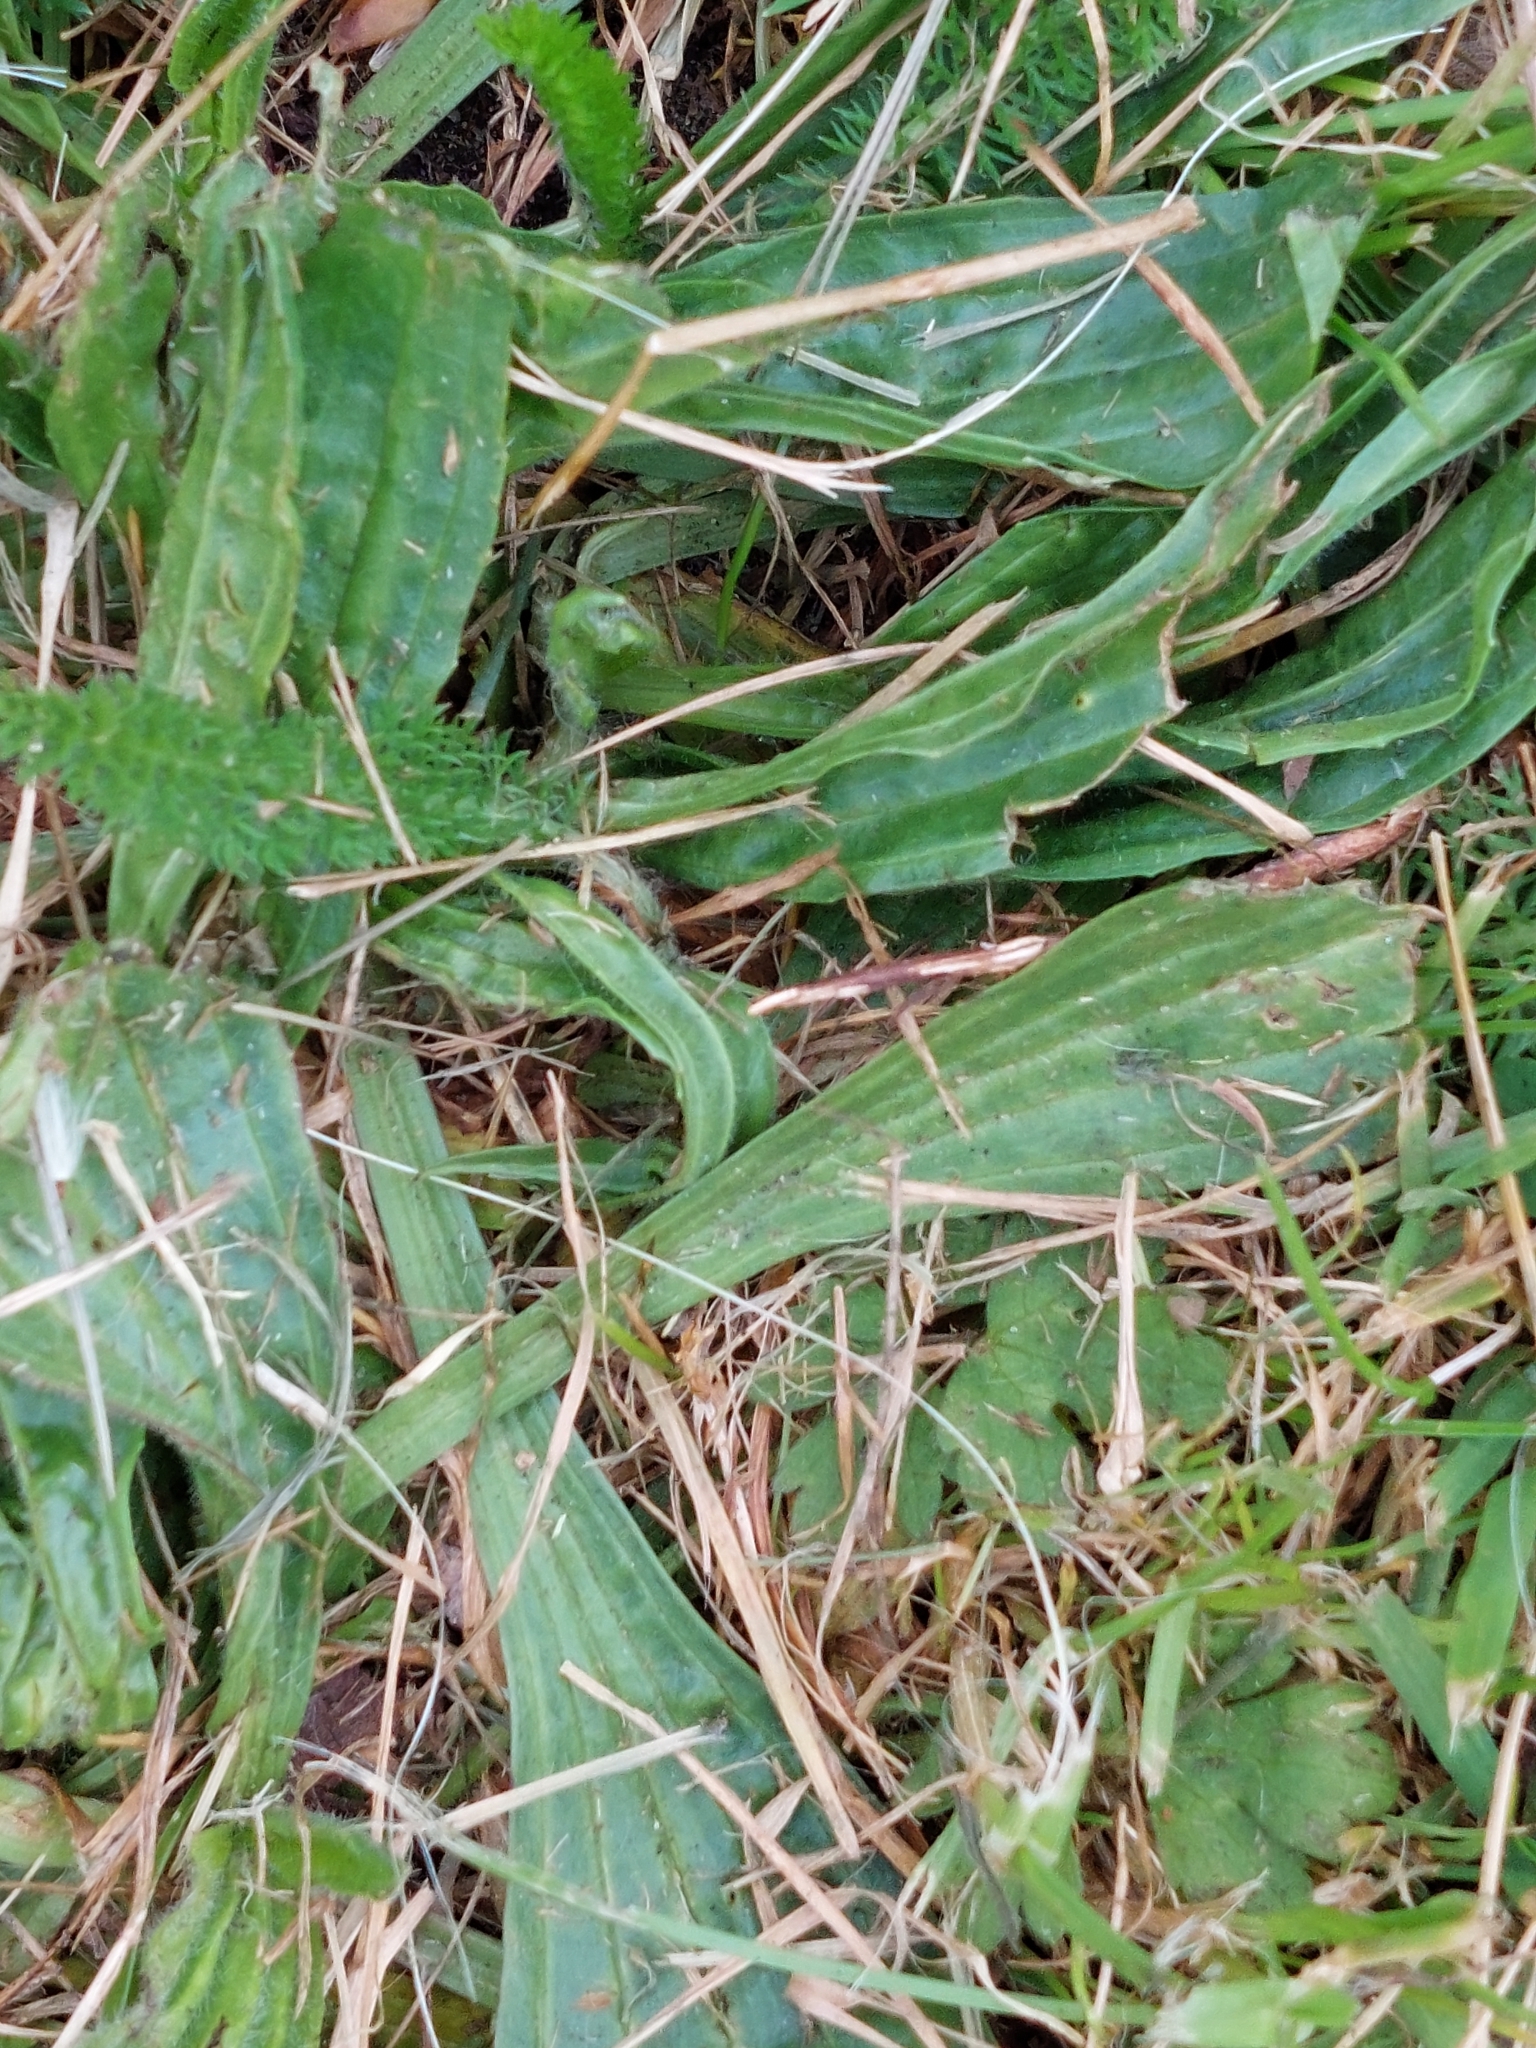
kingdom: Plantae
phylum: Tracheophyta
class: Magnoliopsida
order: Lamiales
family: Plantaginaceae
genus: Plantago
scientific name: Plantago lanceolata
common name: Ribwort plantain
